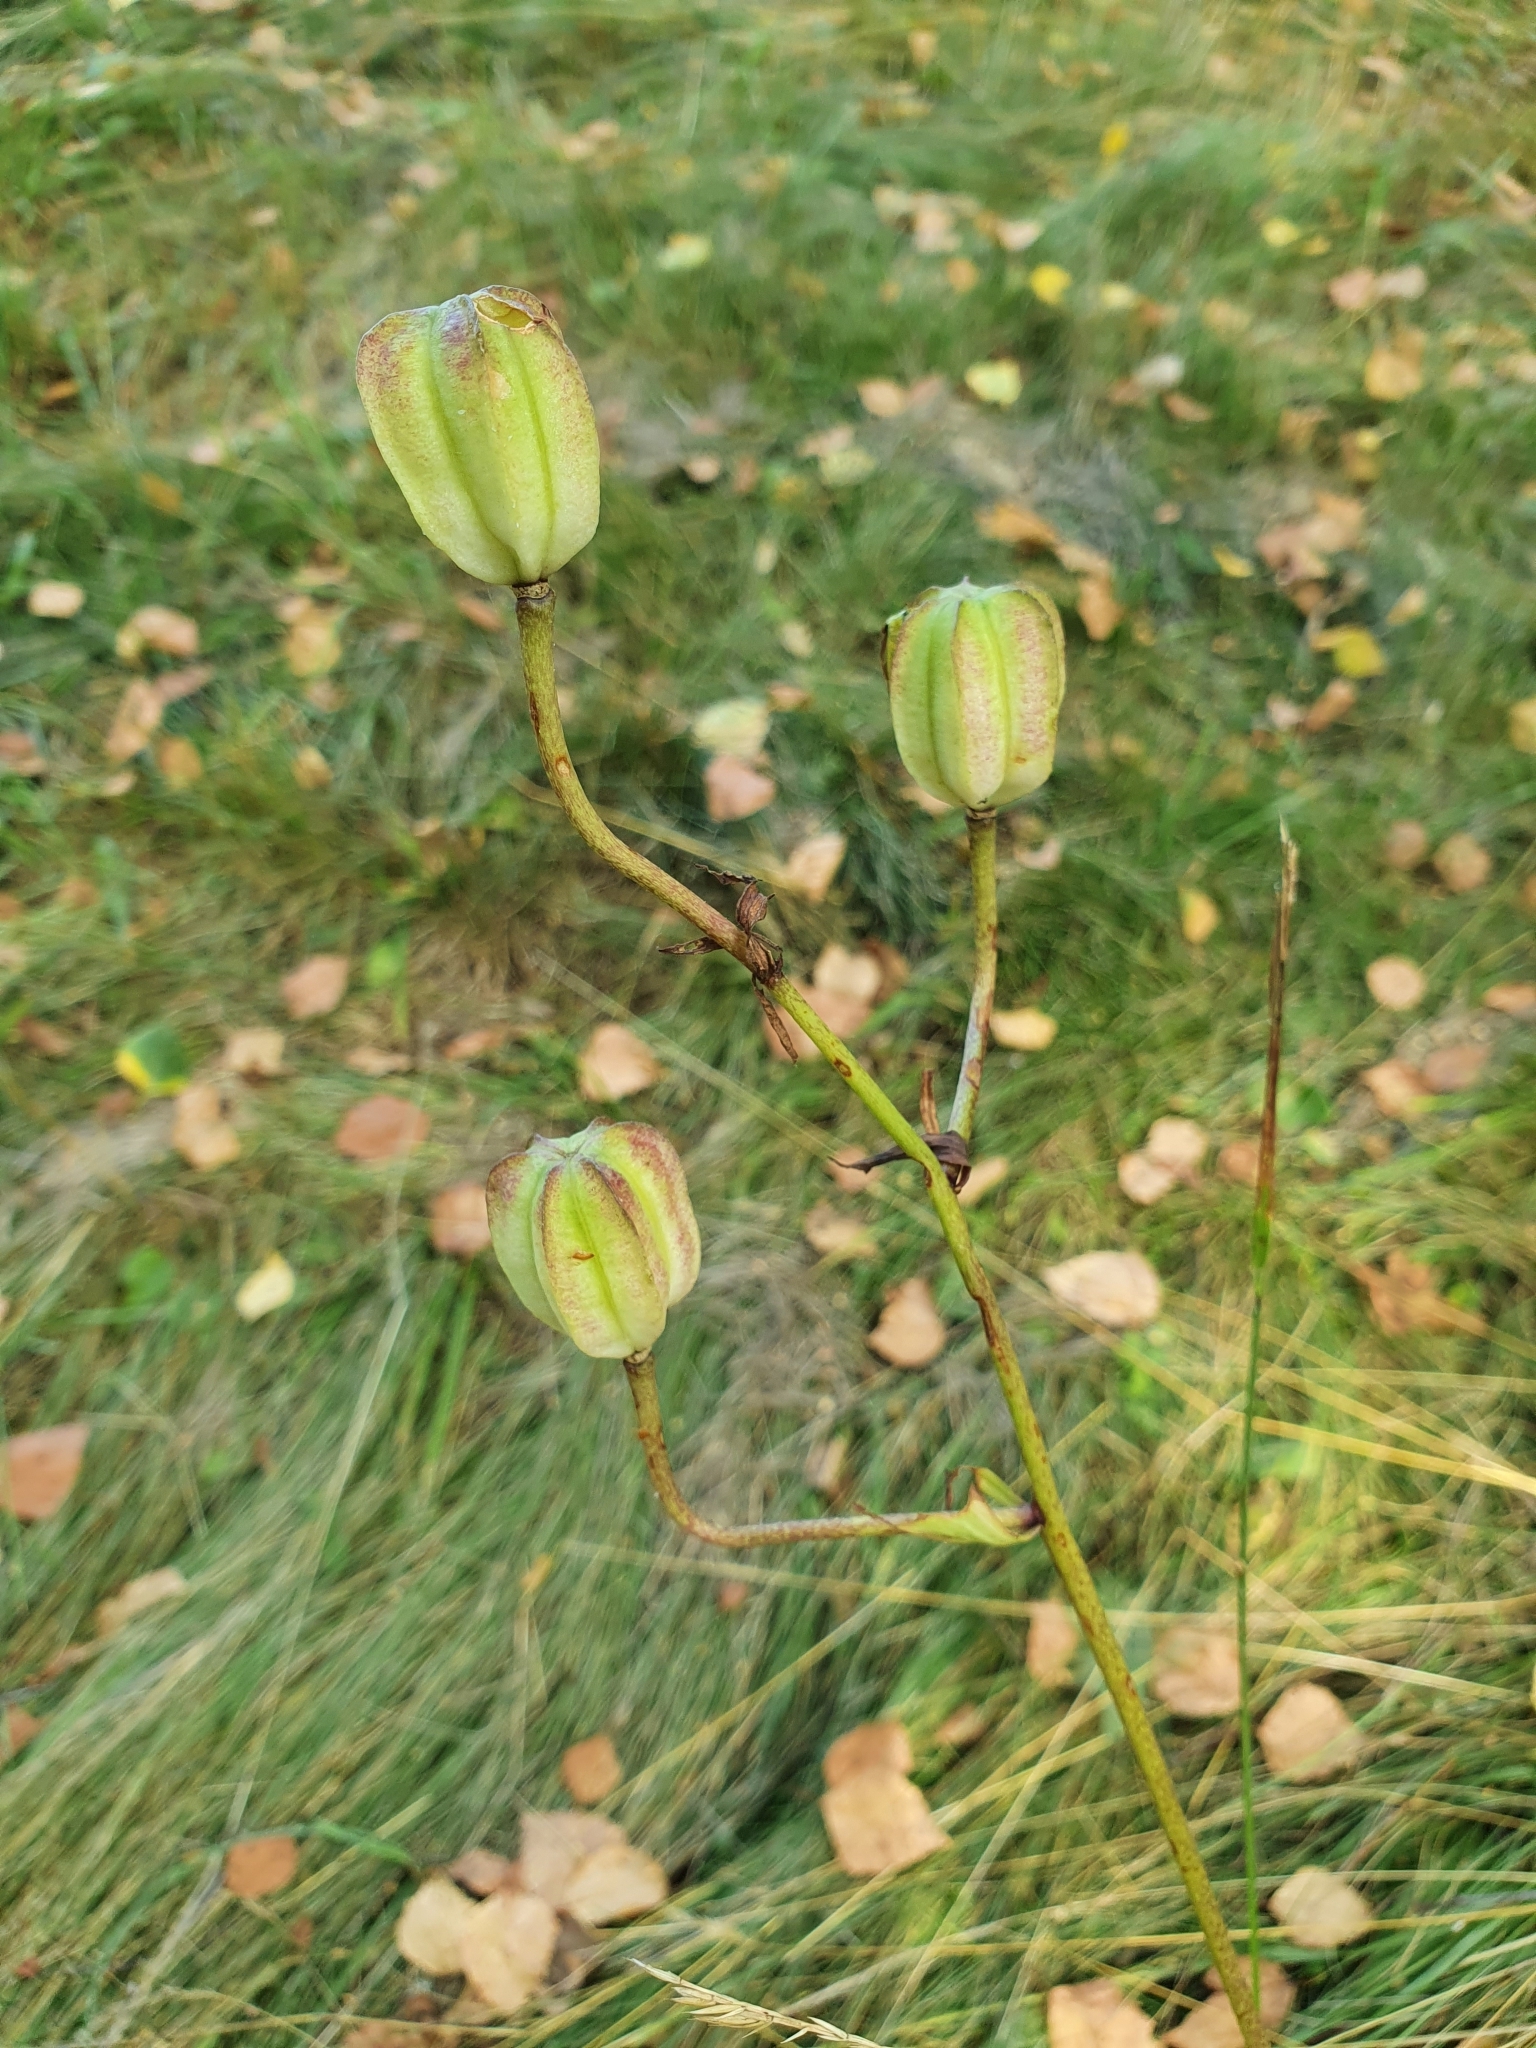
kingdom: Plantae
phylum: Tracheophyta
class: Liliopsida
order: Liliales
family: Liliaceae
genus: Lilium
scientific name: Lilium martagon
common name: Martagon lily
